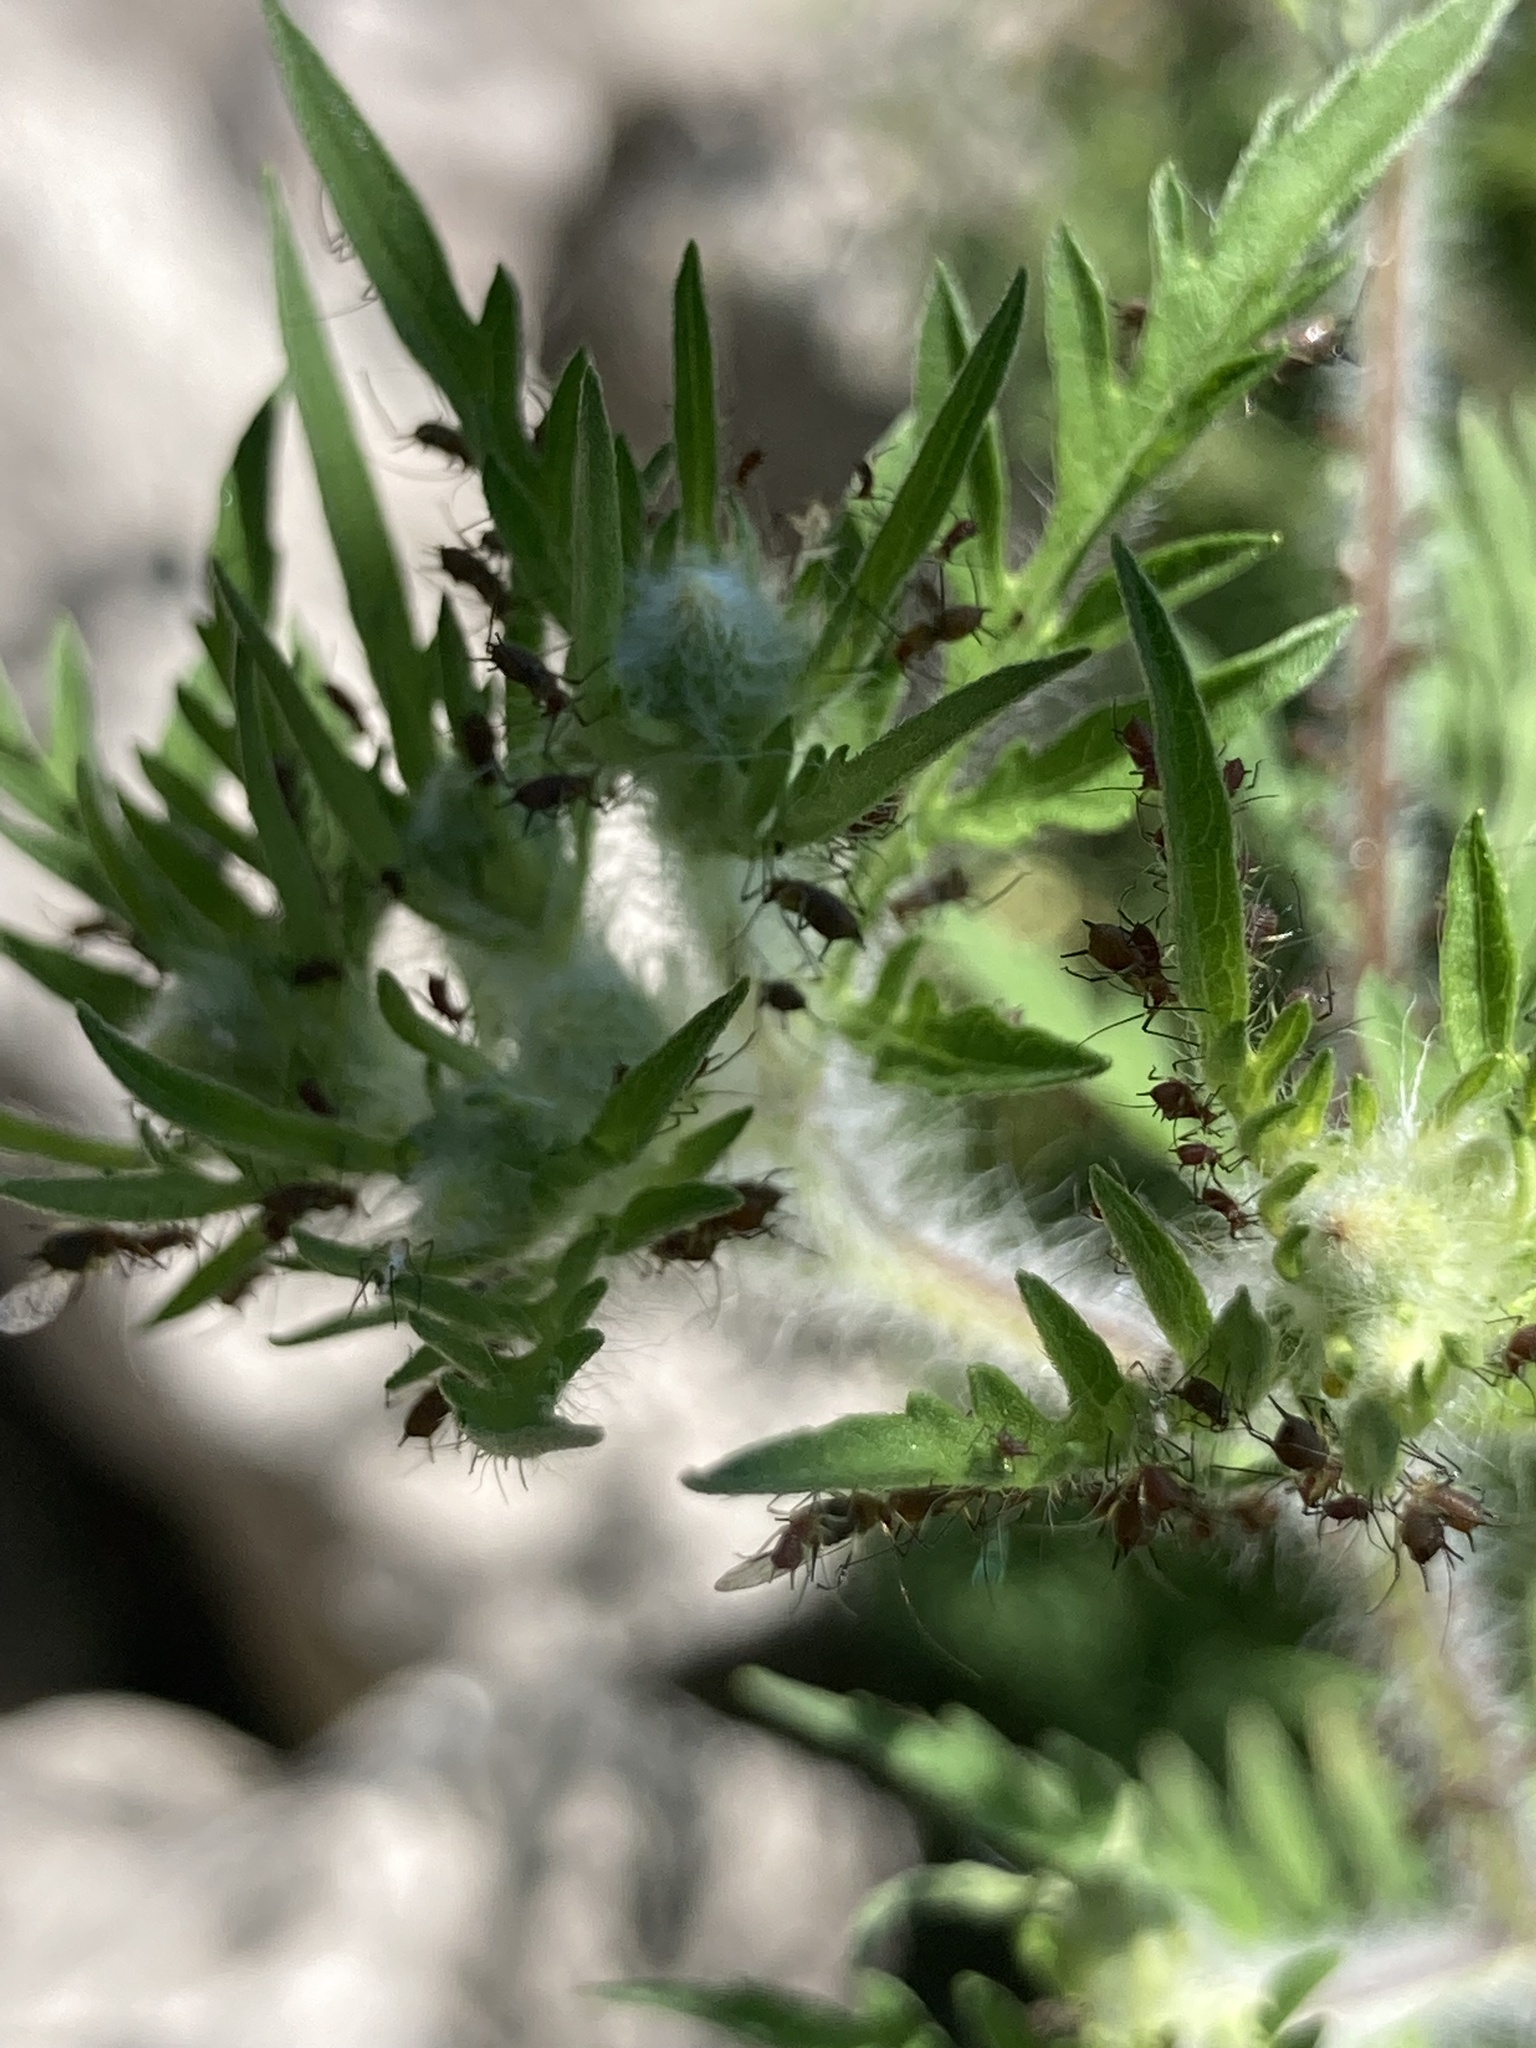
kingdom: Plantae
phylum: Tracheophyta
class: Magnoliopsida
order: Asterales
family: Asteraceae
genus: Ambrosia
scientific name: Ambrosia artemisiifolia
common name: Annual ragweed
